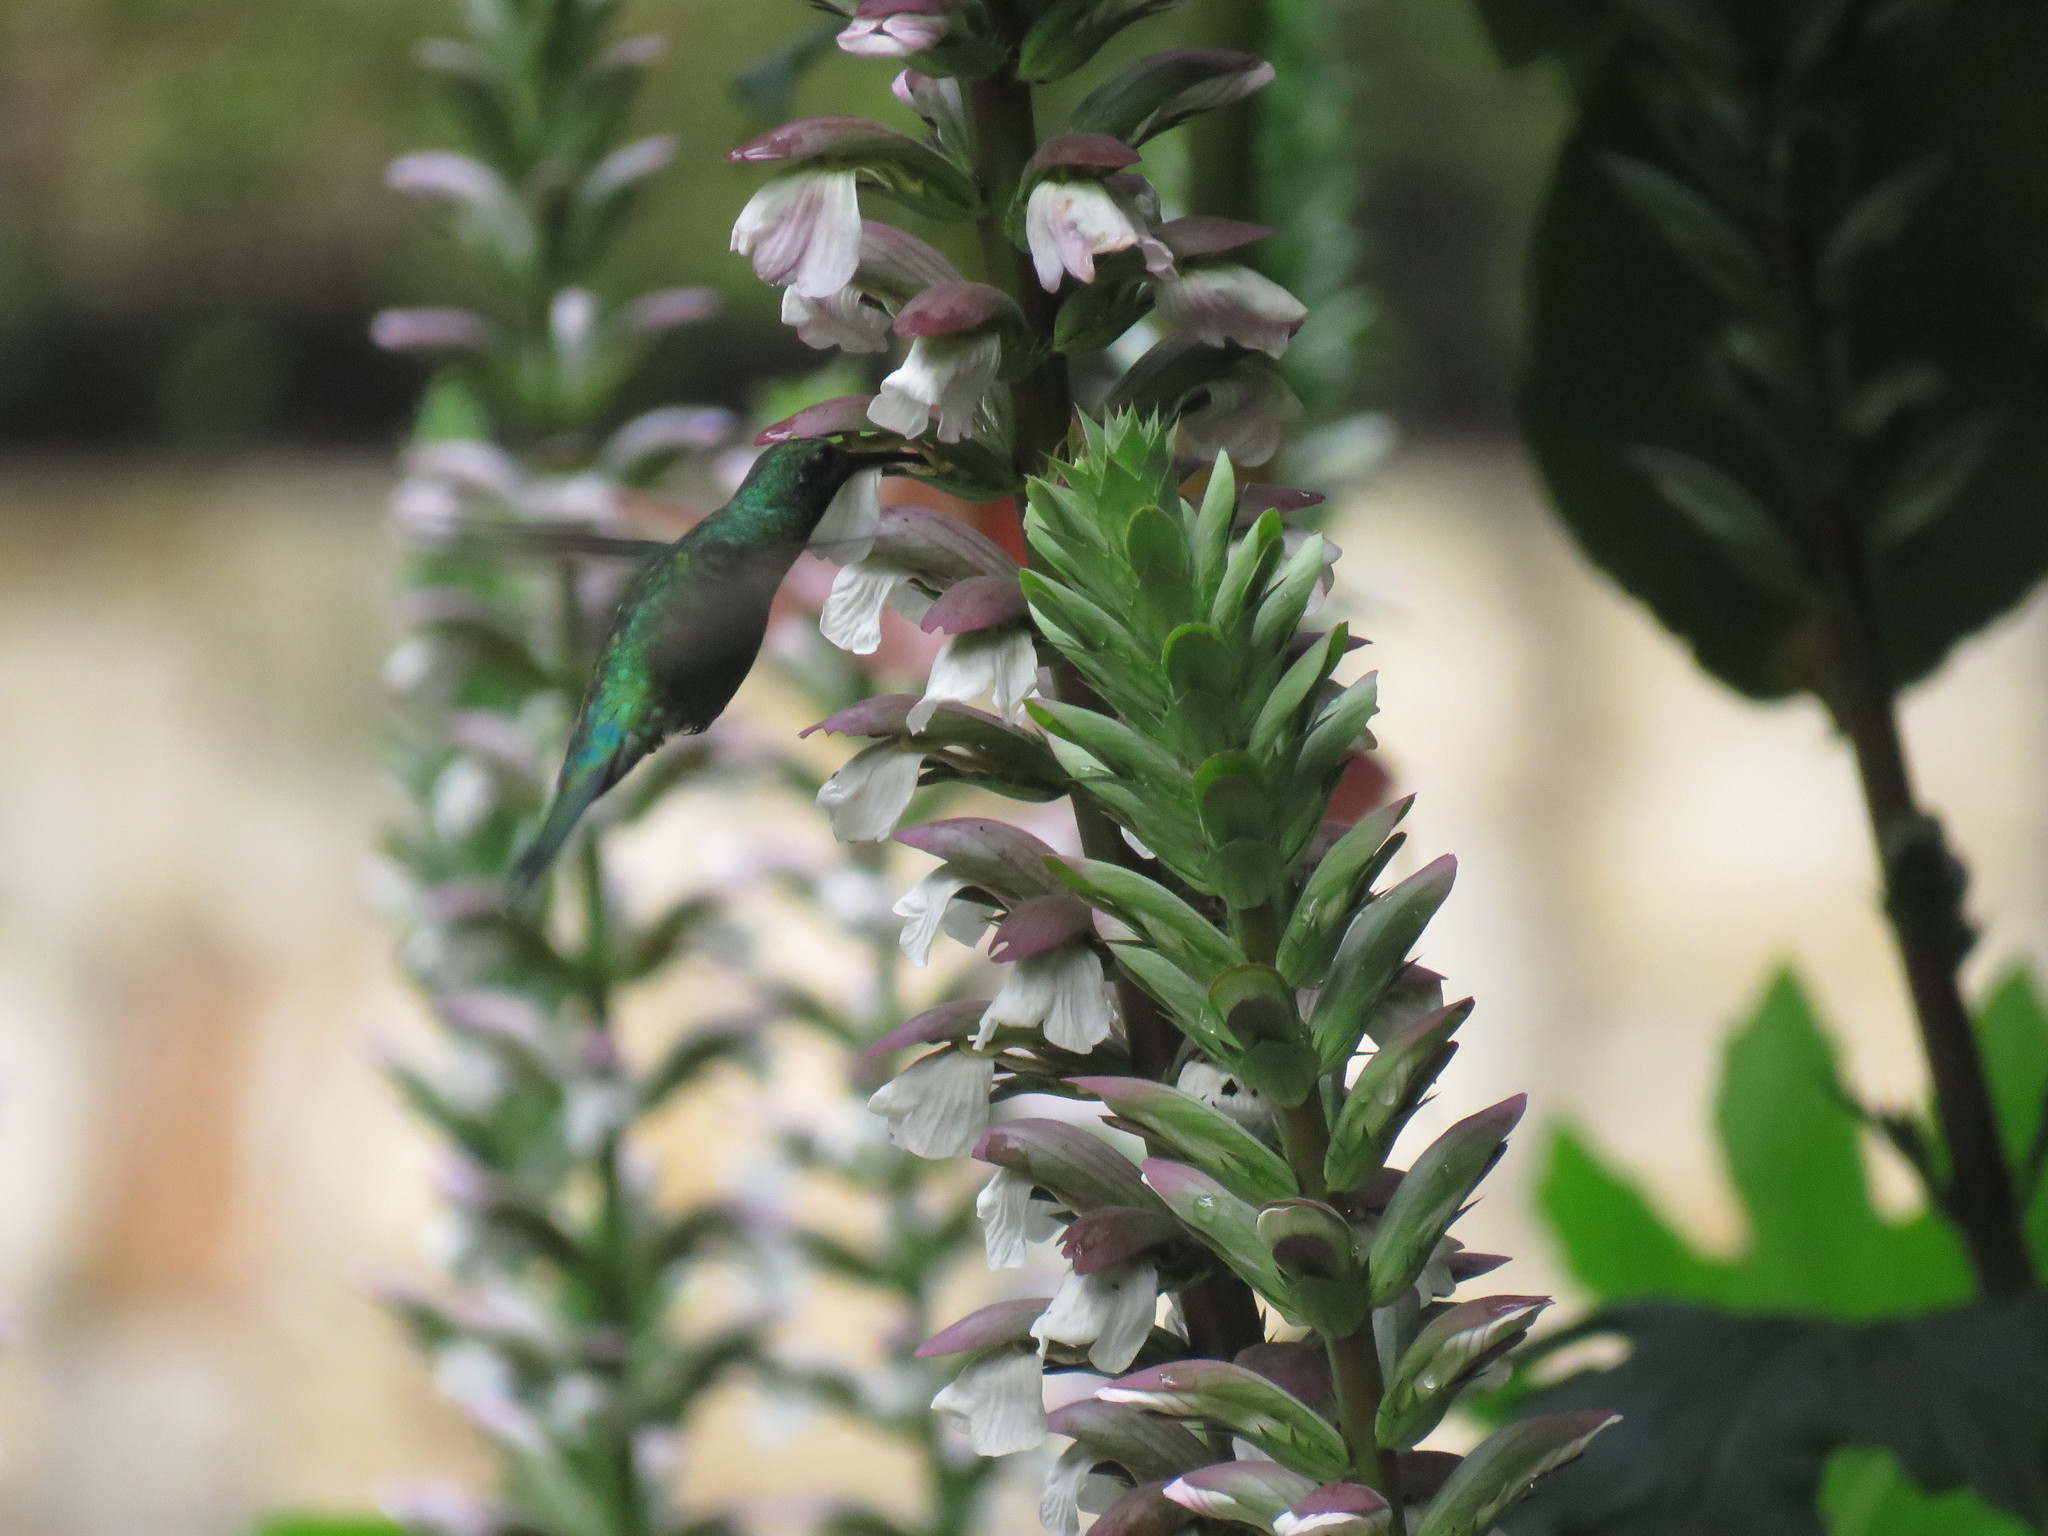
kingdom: Animalia
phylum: Chordata
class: Aves
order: Apodiformes
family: Trochilidae
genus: Colibri
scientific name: Colibri coruscans
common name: Sparkling violetear
